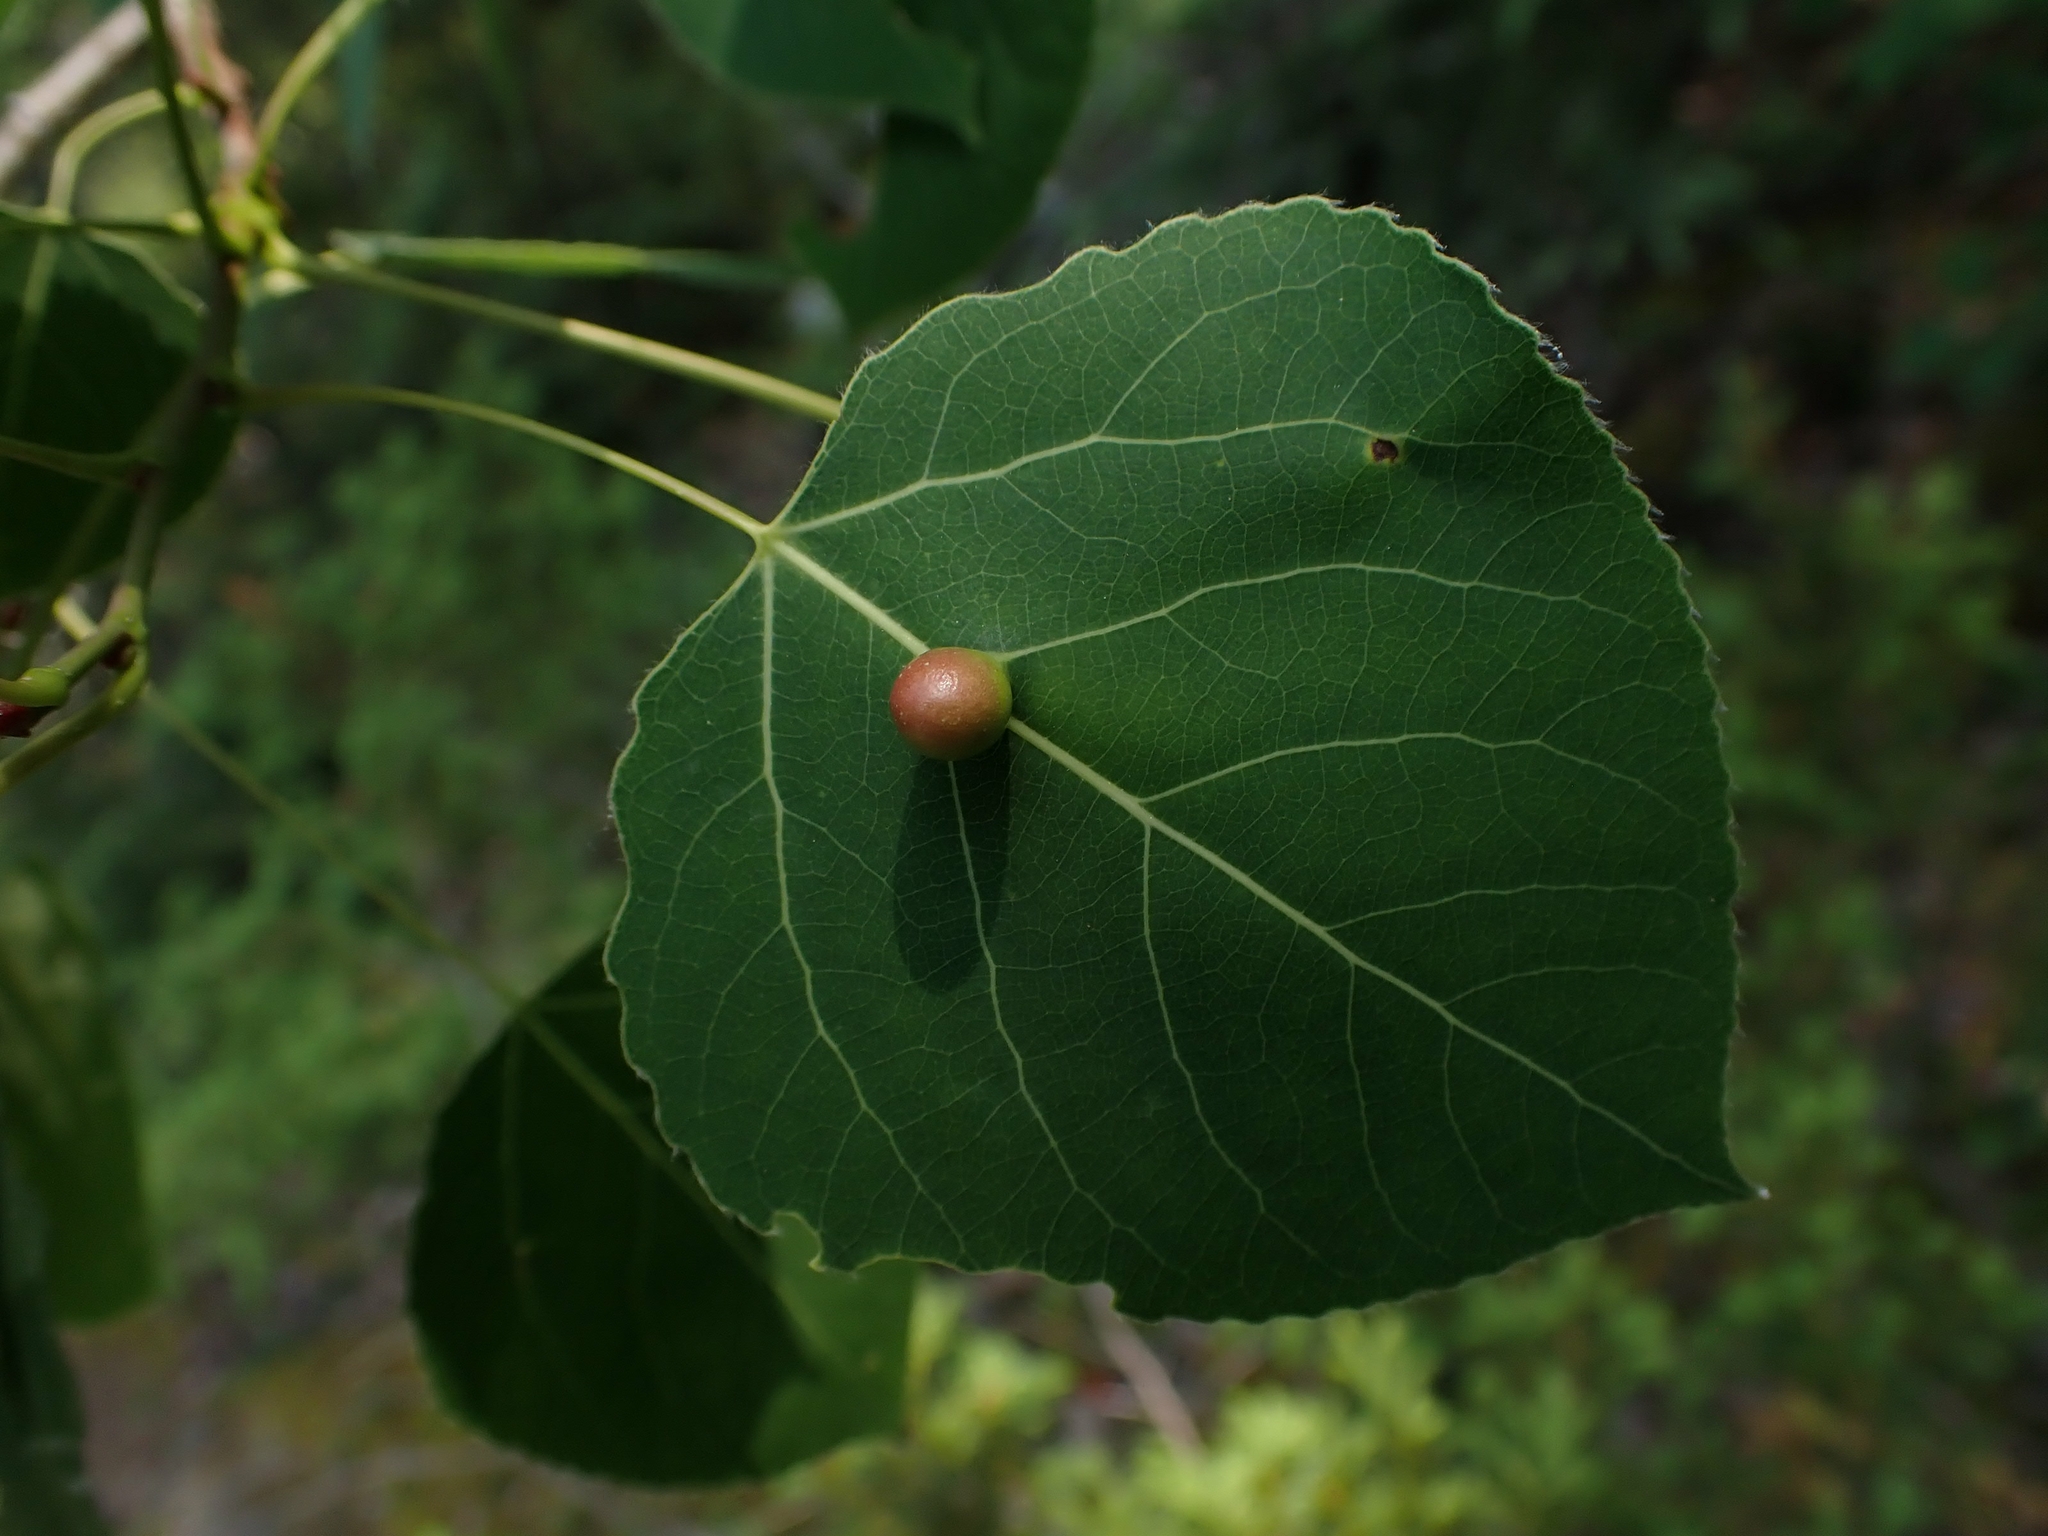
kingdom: Plantae
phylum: Tracheophyta
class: Magnoliopsida
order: Malpighiales
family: Salicaceae
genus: Populus
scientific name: Populus tremuloides
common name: Quaking aspen
